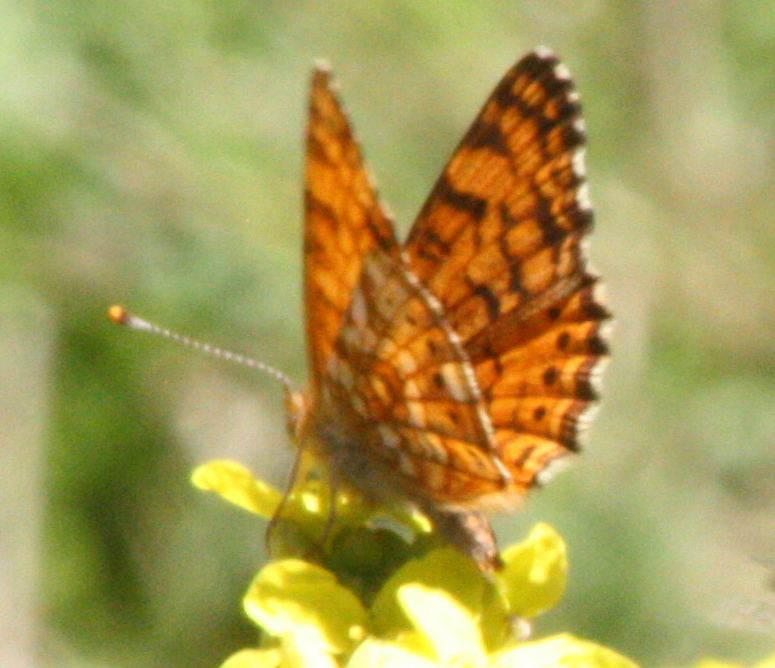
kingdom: Animalia
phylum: Arthropoda
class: Insecta
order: Lepidoptera
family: Nymphalidae
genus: Eresia
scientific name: Eresia aveyrona
